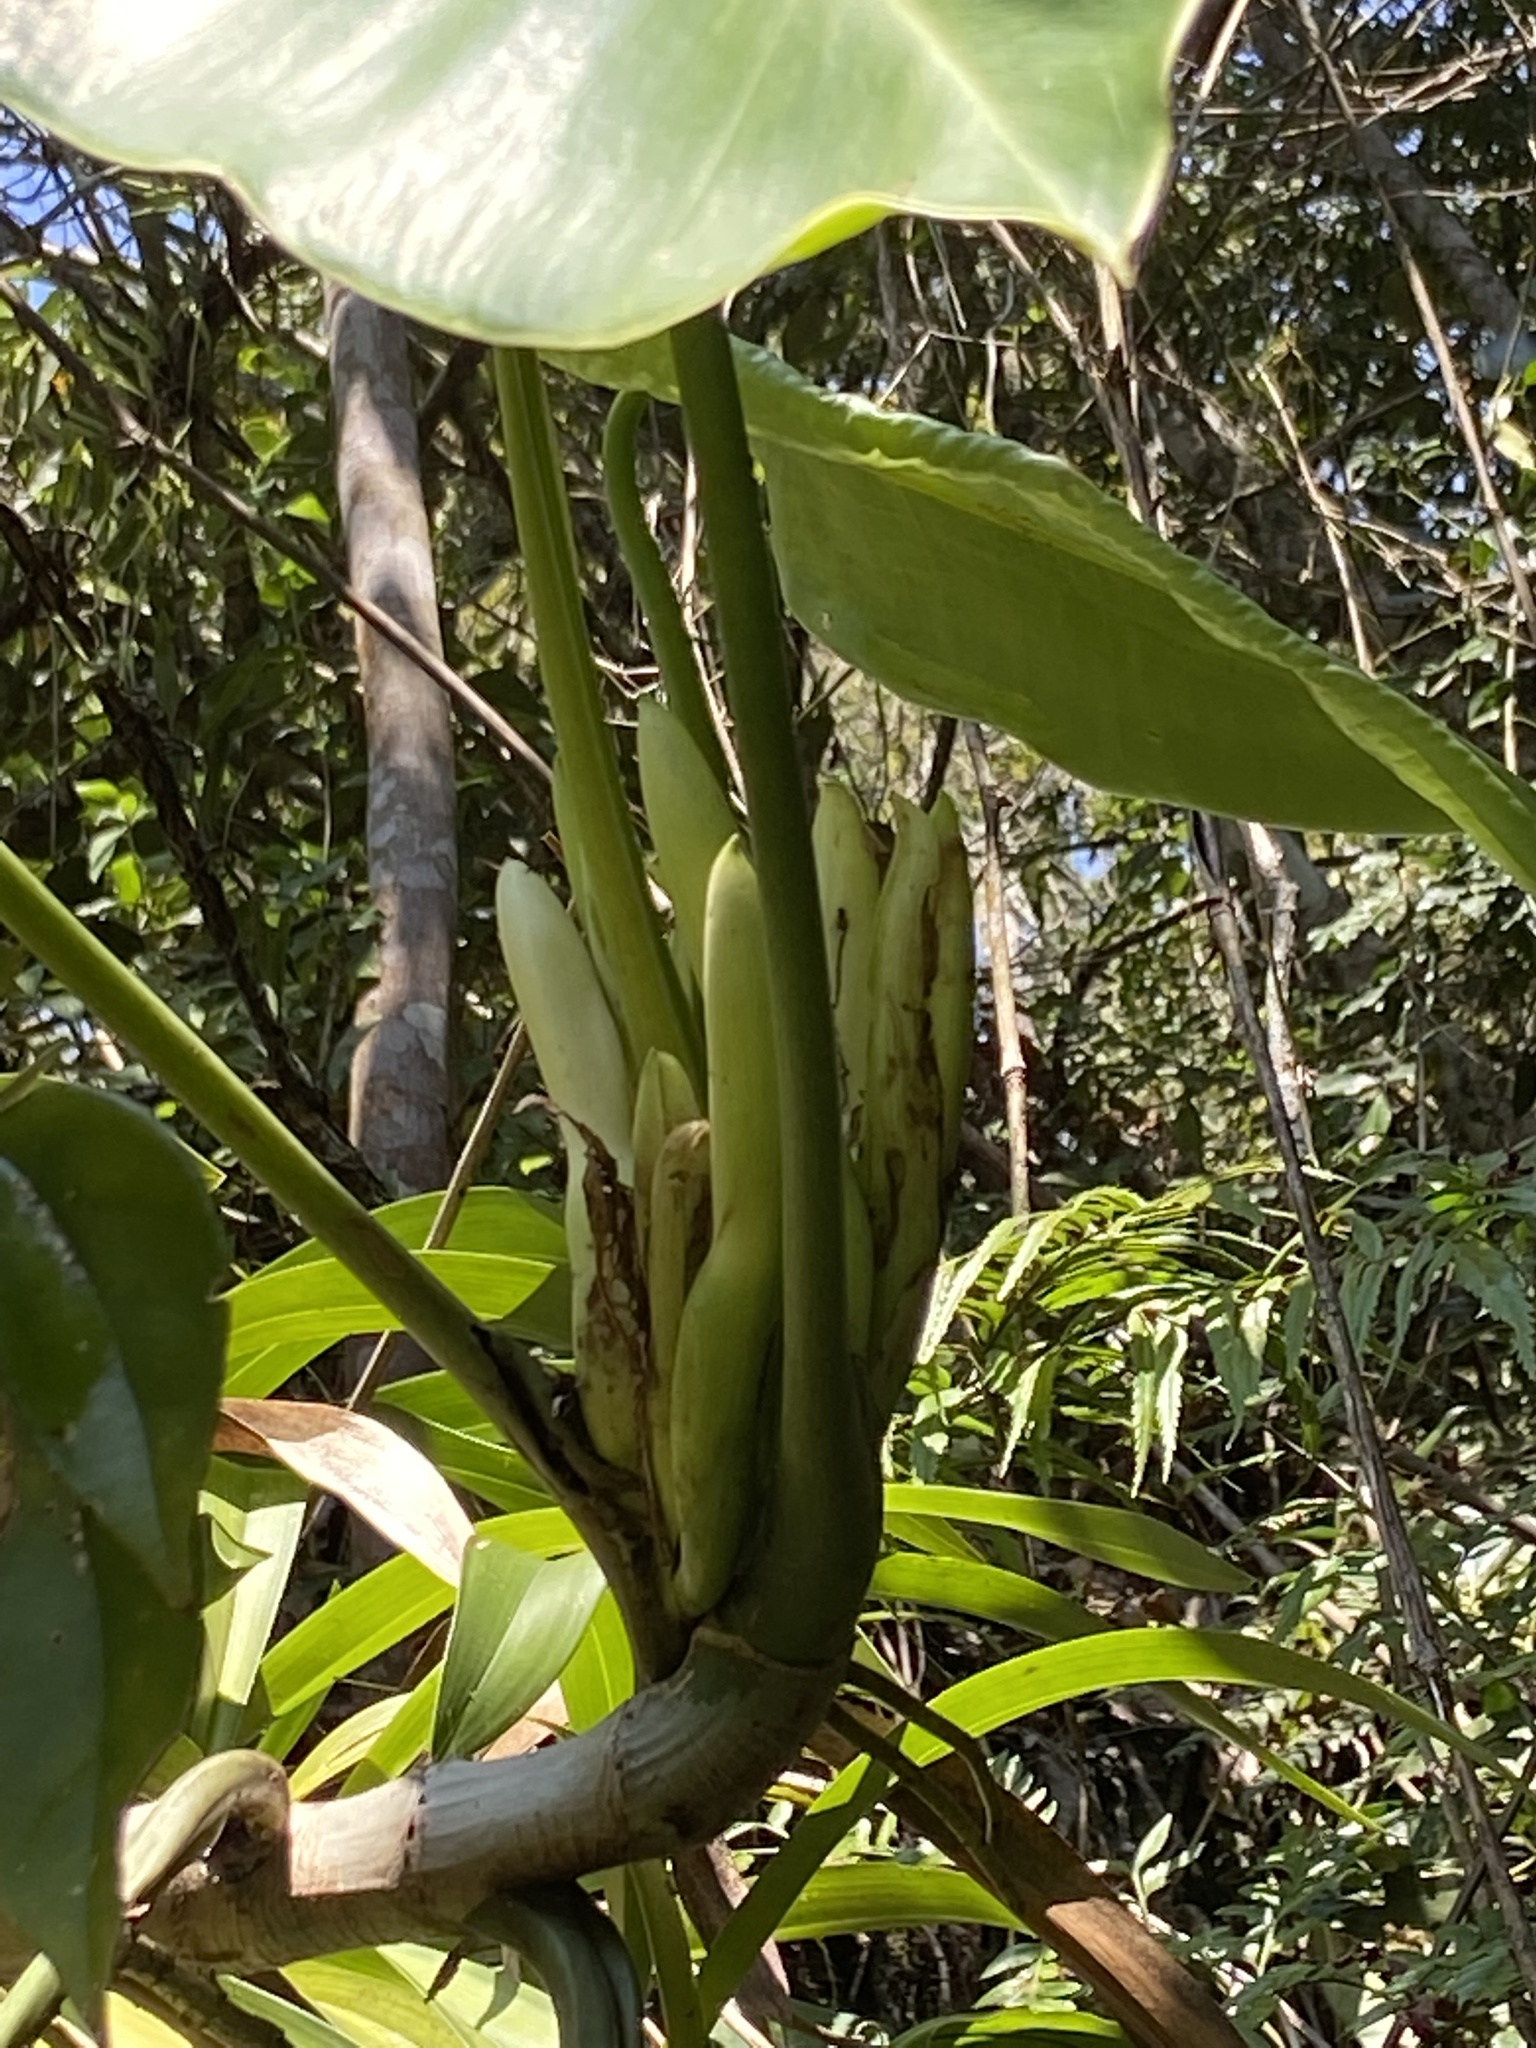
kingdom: Plantae
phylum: Tracheophyta
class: Liliopsida
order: Alismatales
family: Araceae
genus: Philodendron
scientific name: Philodendron appendiculatum
